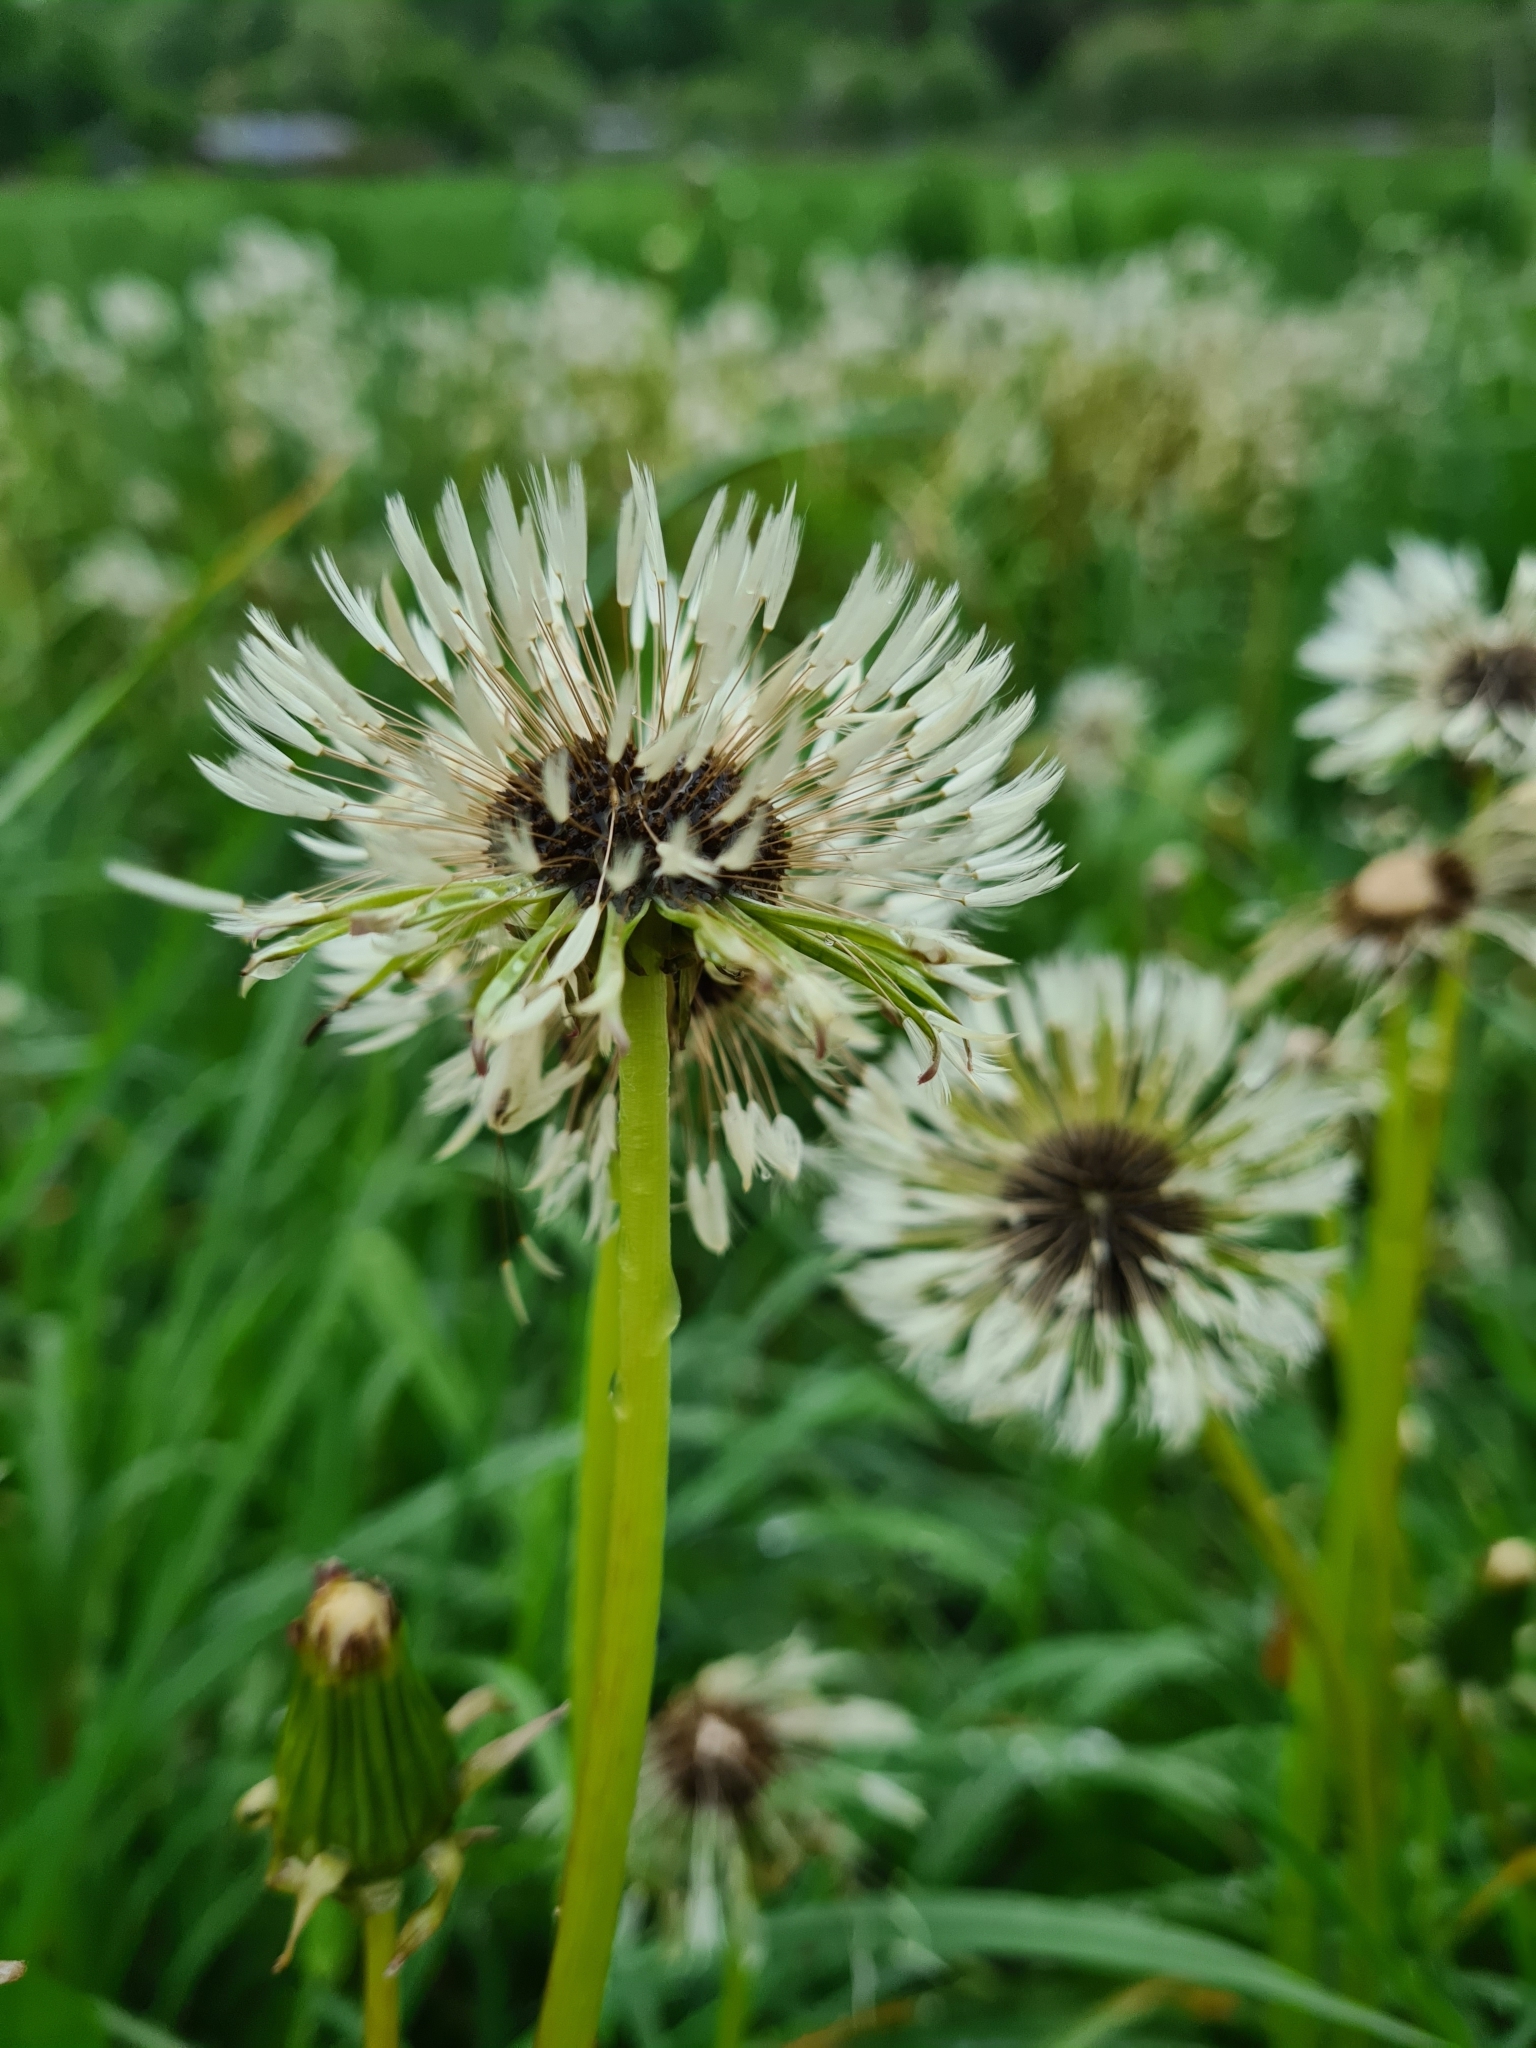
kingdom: Plantae
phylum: Tracheophyta
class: Magnoliopsida
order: Asterales
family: Asteraceae
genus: Taraxacum
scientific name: Taraxacum
